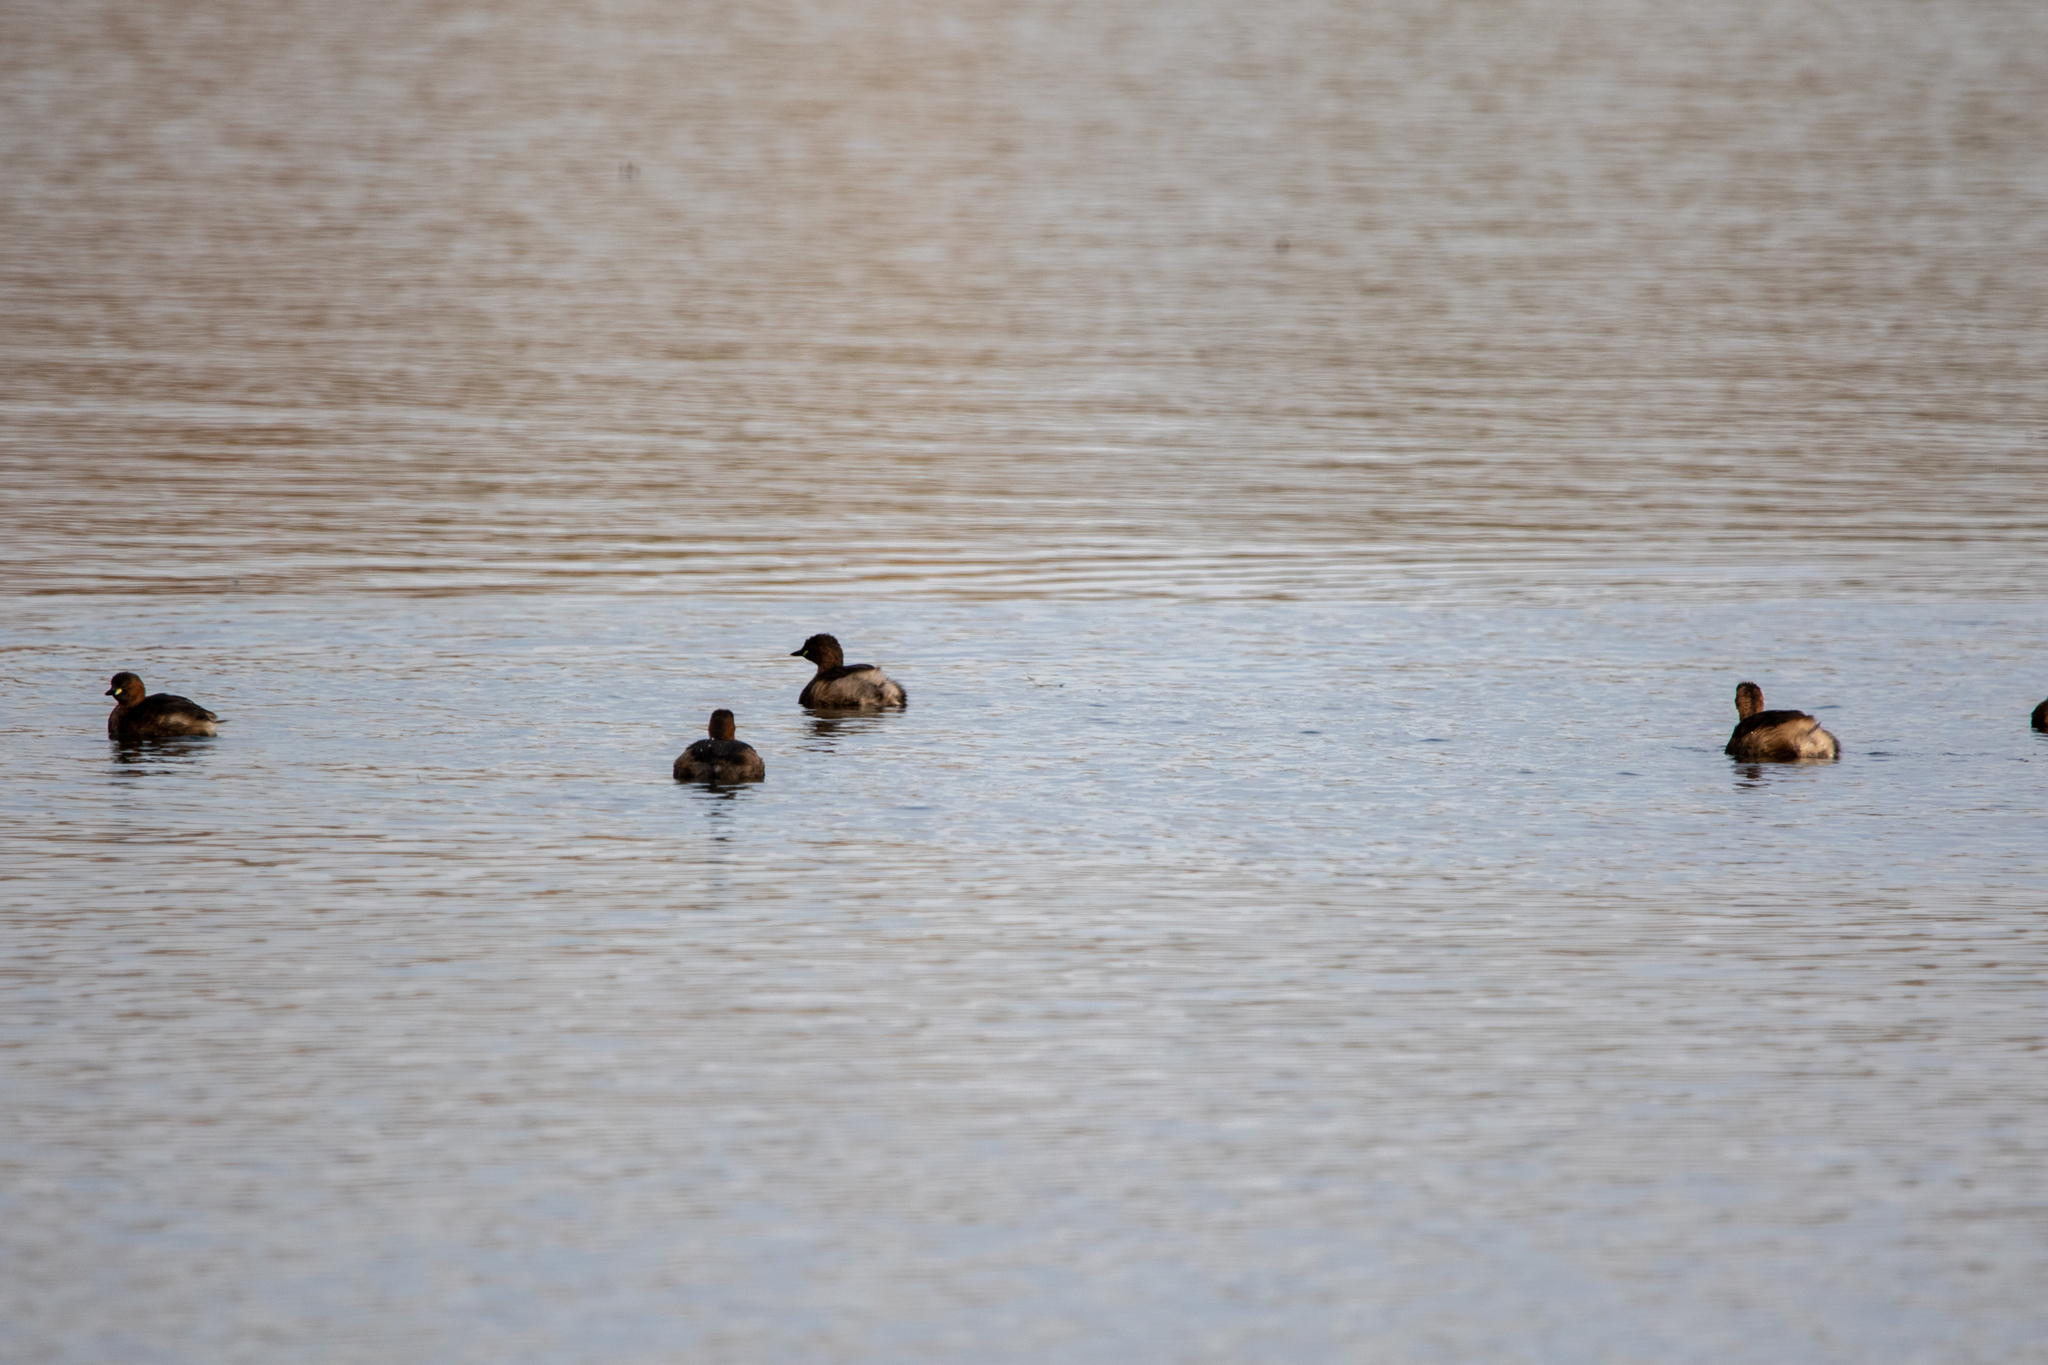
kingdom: Animalia
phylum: Chordata
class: Aves
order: Podicipediformes
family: Podicipedidae
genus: Tachybaptus
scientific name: Tachybaptus ruficollis
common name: Little grebe
